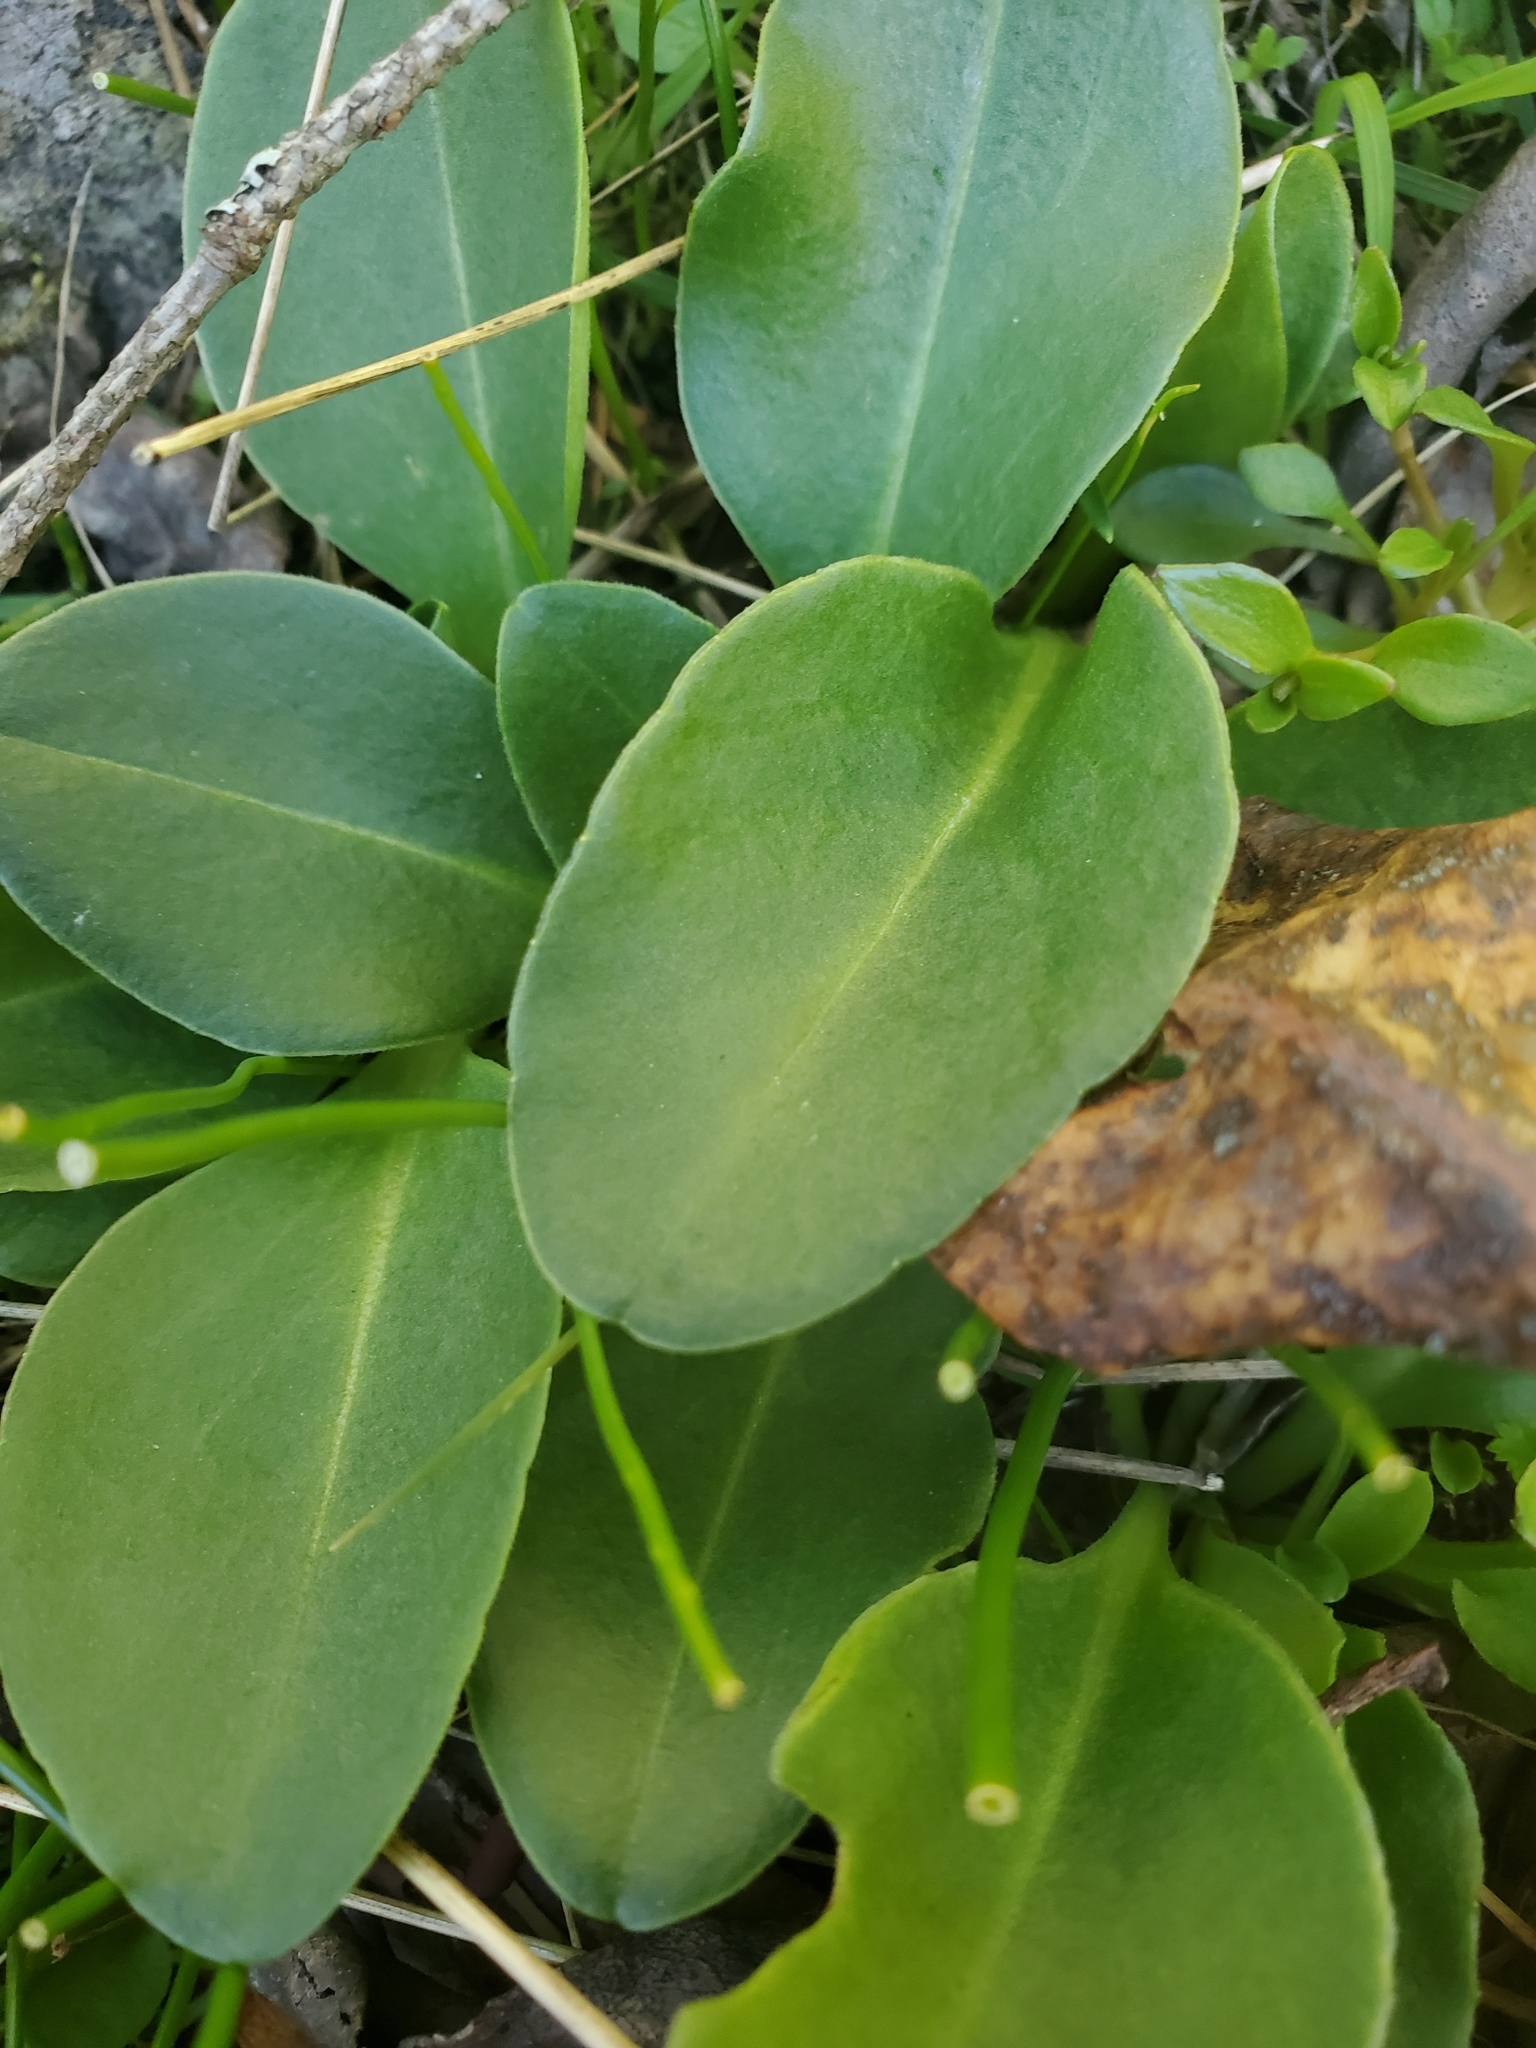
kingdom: Plantae
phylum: Tracheophyta
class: Magnoliopsida
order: Ericales
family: Primulaceae
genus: Dodecatheon
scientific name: Dodecatheon hendersonii
